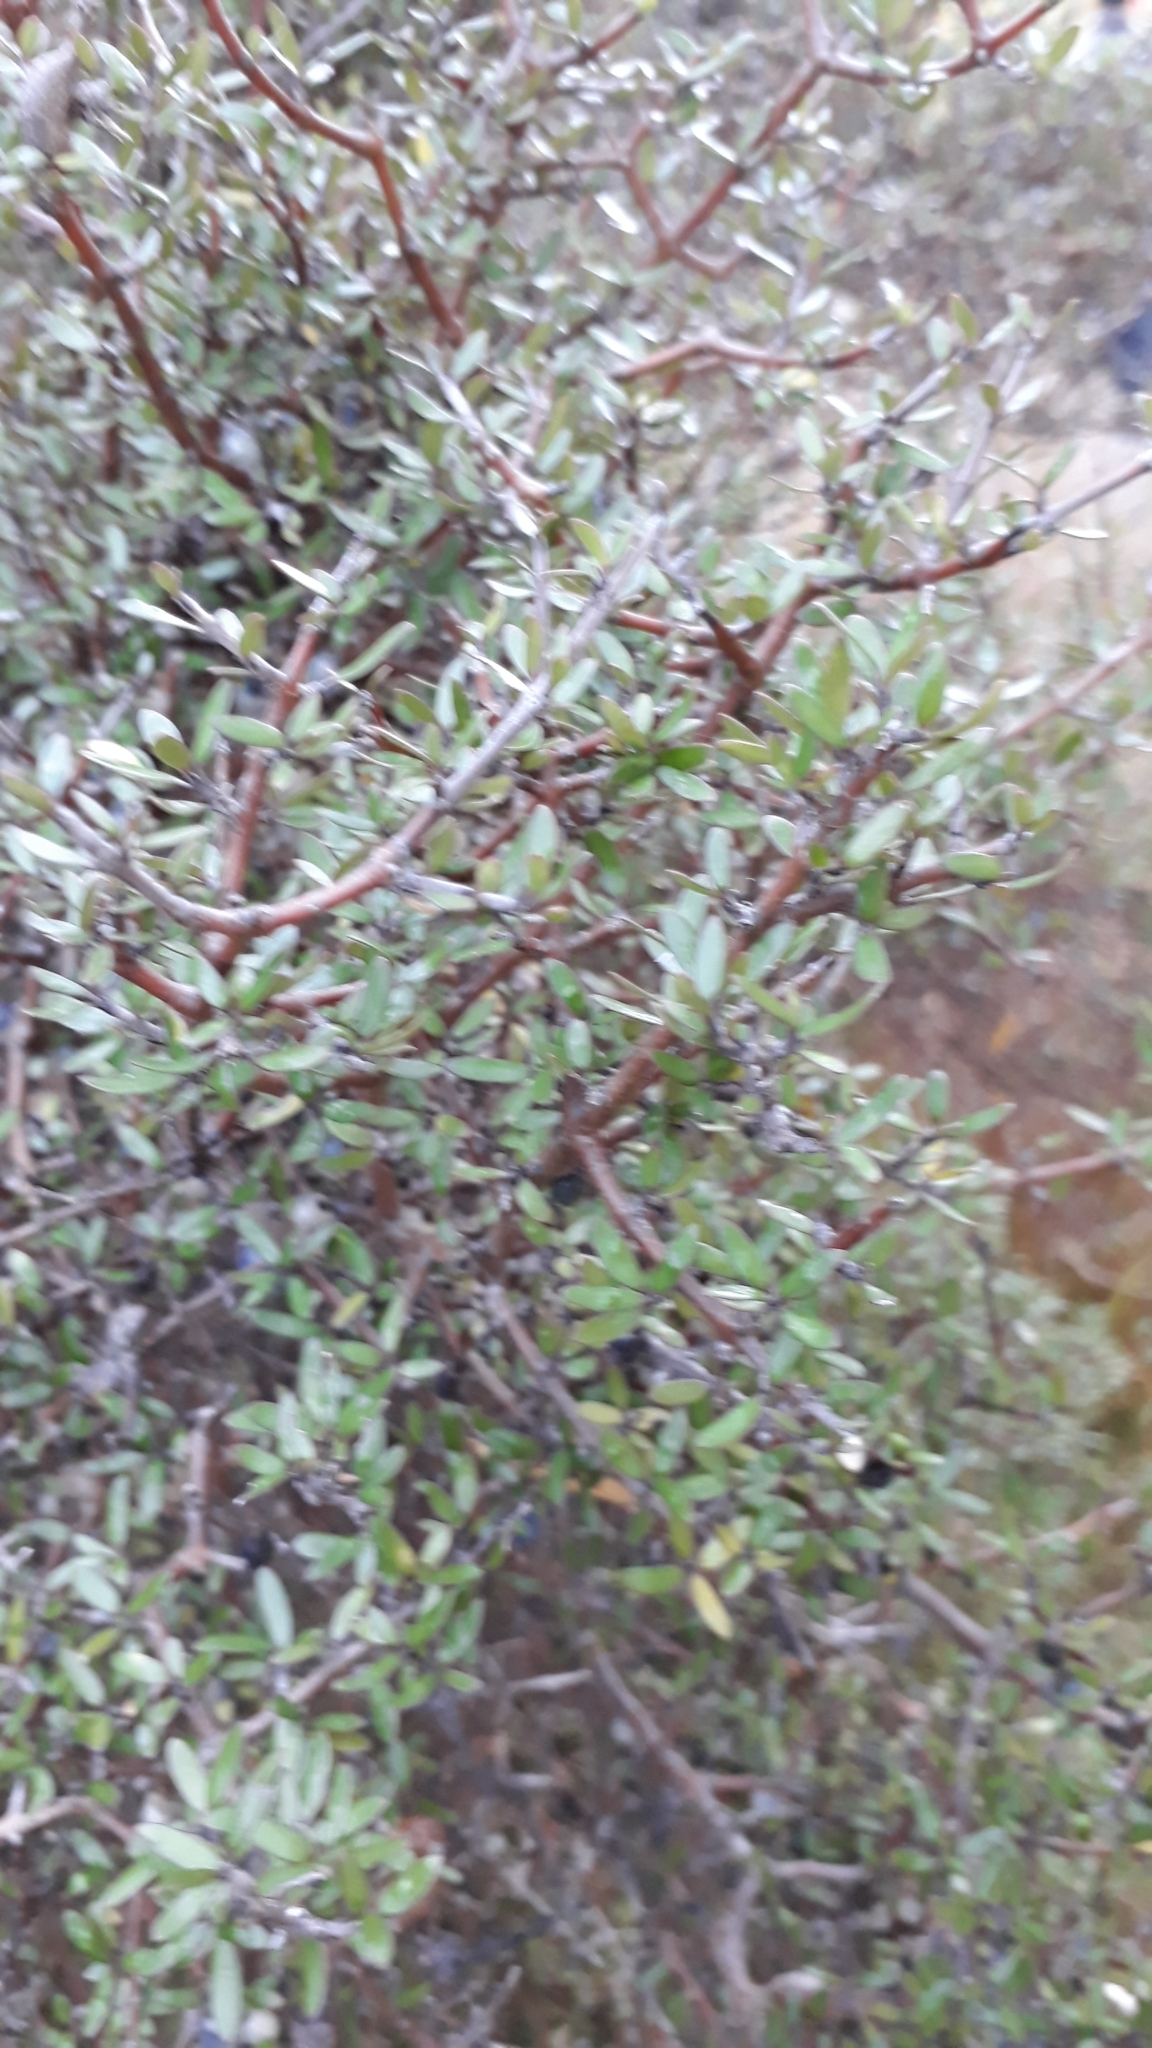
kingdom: Plantae
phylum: Tracheophyta
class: Magnoliopsida
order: Gentianales
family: Rubiaceae
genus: Coprosma
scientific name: Coprosma propinqua
